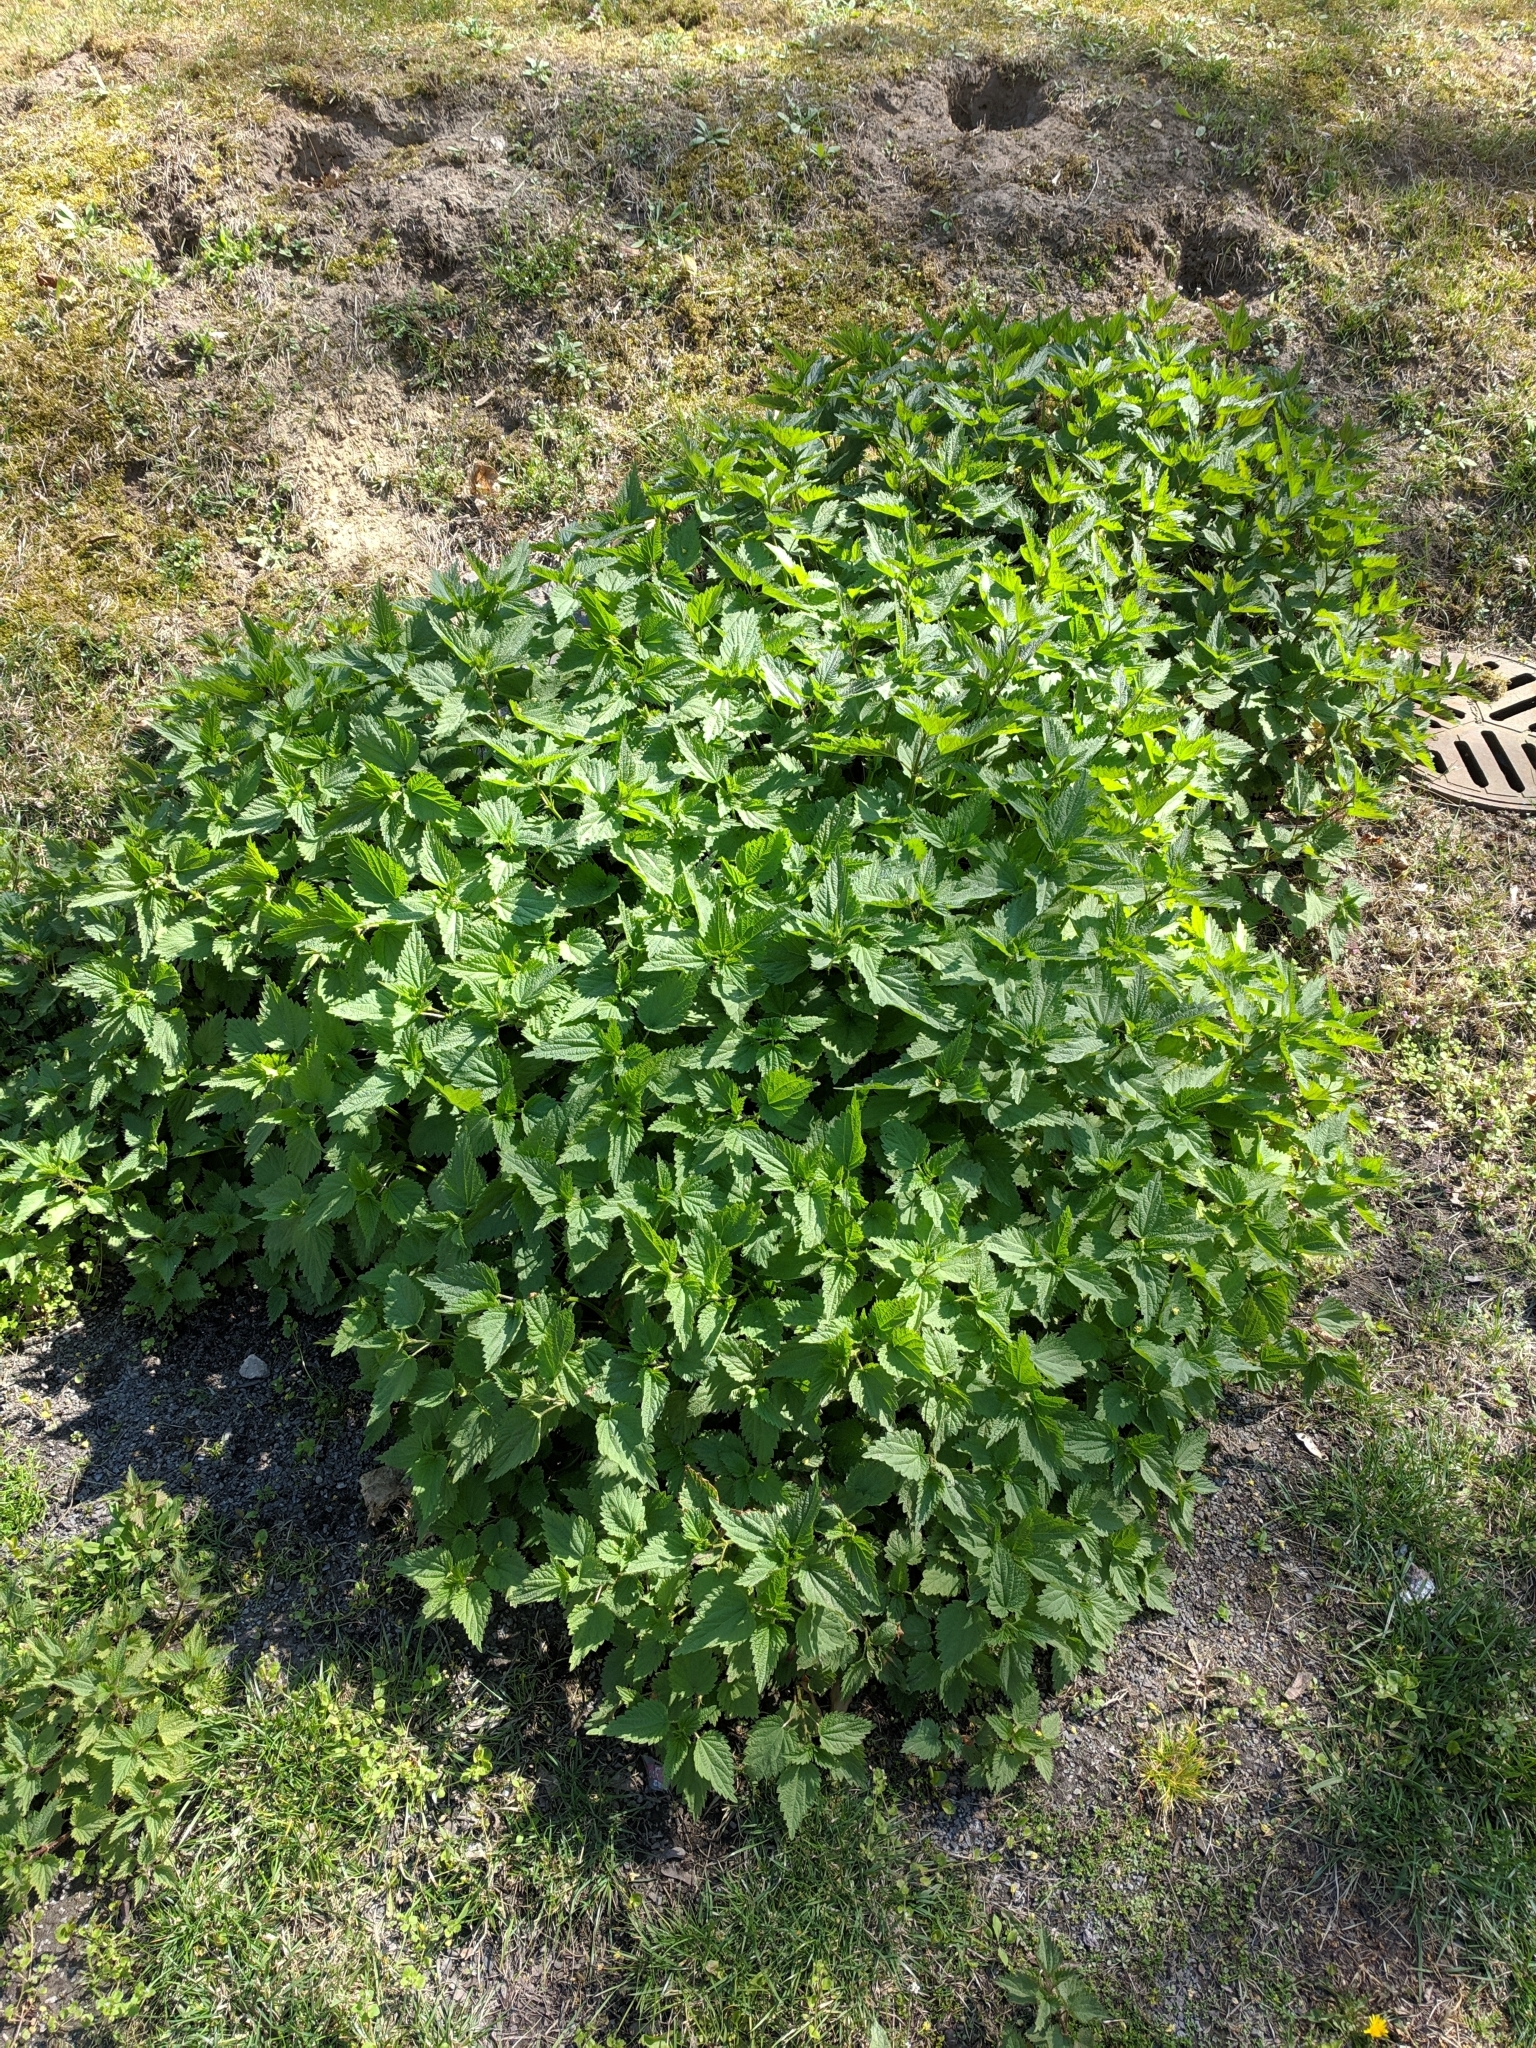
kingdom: Plantae
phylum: Tracheophyta
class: Magnoliopsida
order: Rosales
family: Urticaceae
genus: Urtica
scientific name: Urtica dioica
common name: Common nettle
